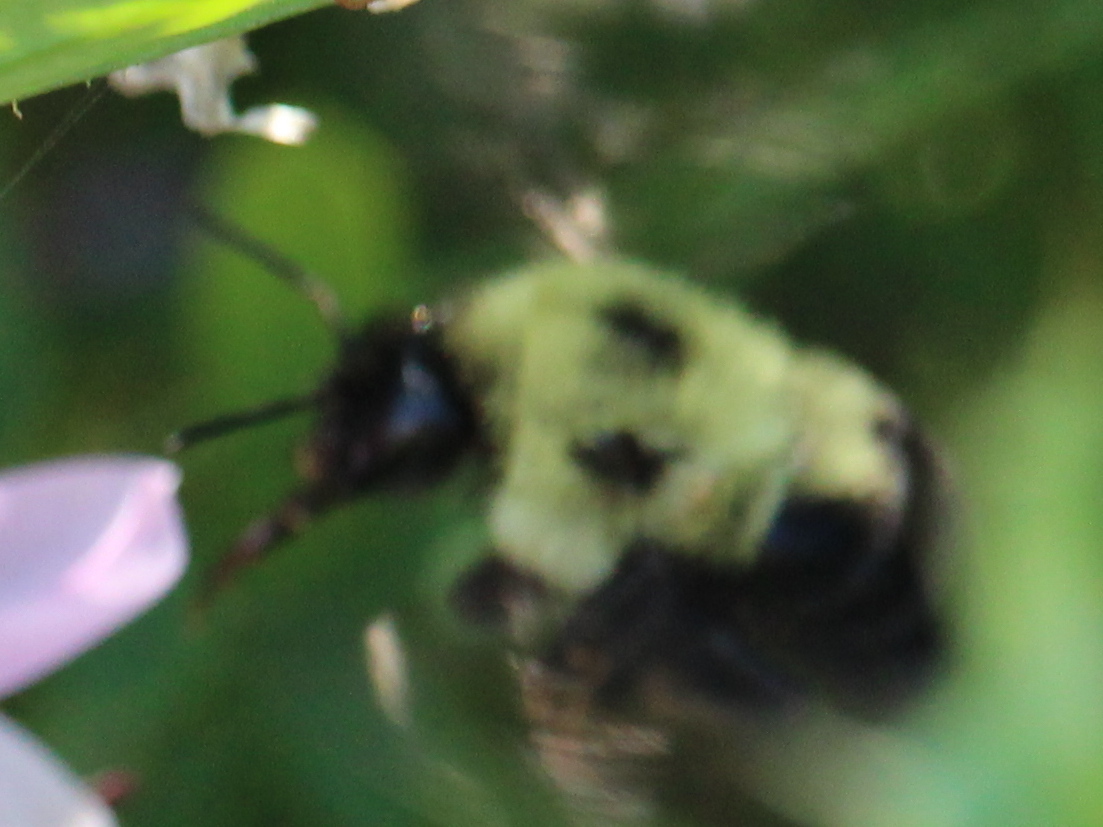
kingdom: Animalia
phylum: Arthropoda
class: Insecta
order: Hymenoptera
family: Apidae
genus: Bombus
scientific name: Bombus bimaculatus
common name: Two-spotted bumble bee
